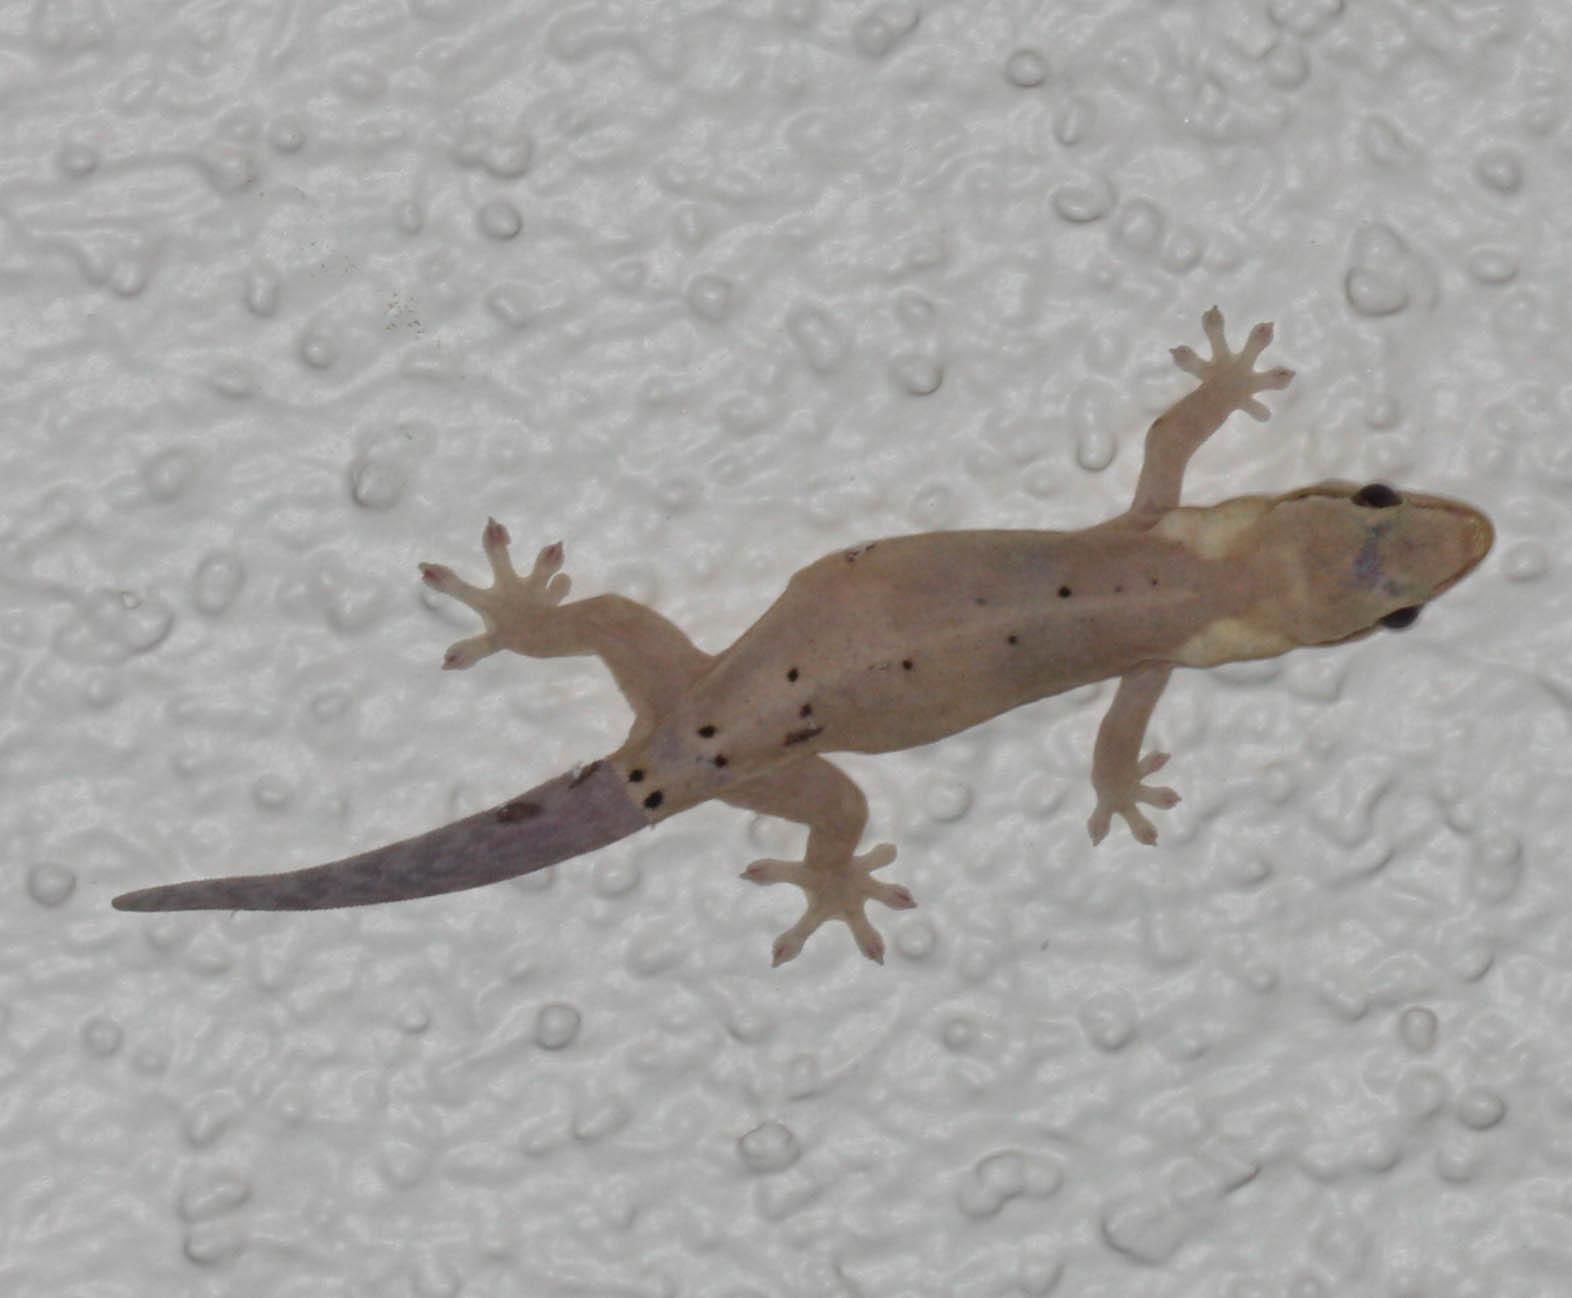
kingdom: Animalia
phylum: Chordata
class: Squamata
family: Gekkonidae
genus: Lepidodactylus
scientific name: Lepidodactylus lugubris
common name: Mourning gecko
